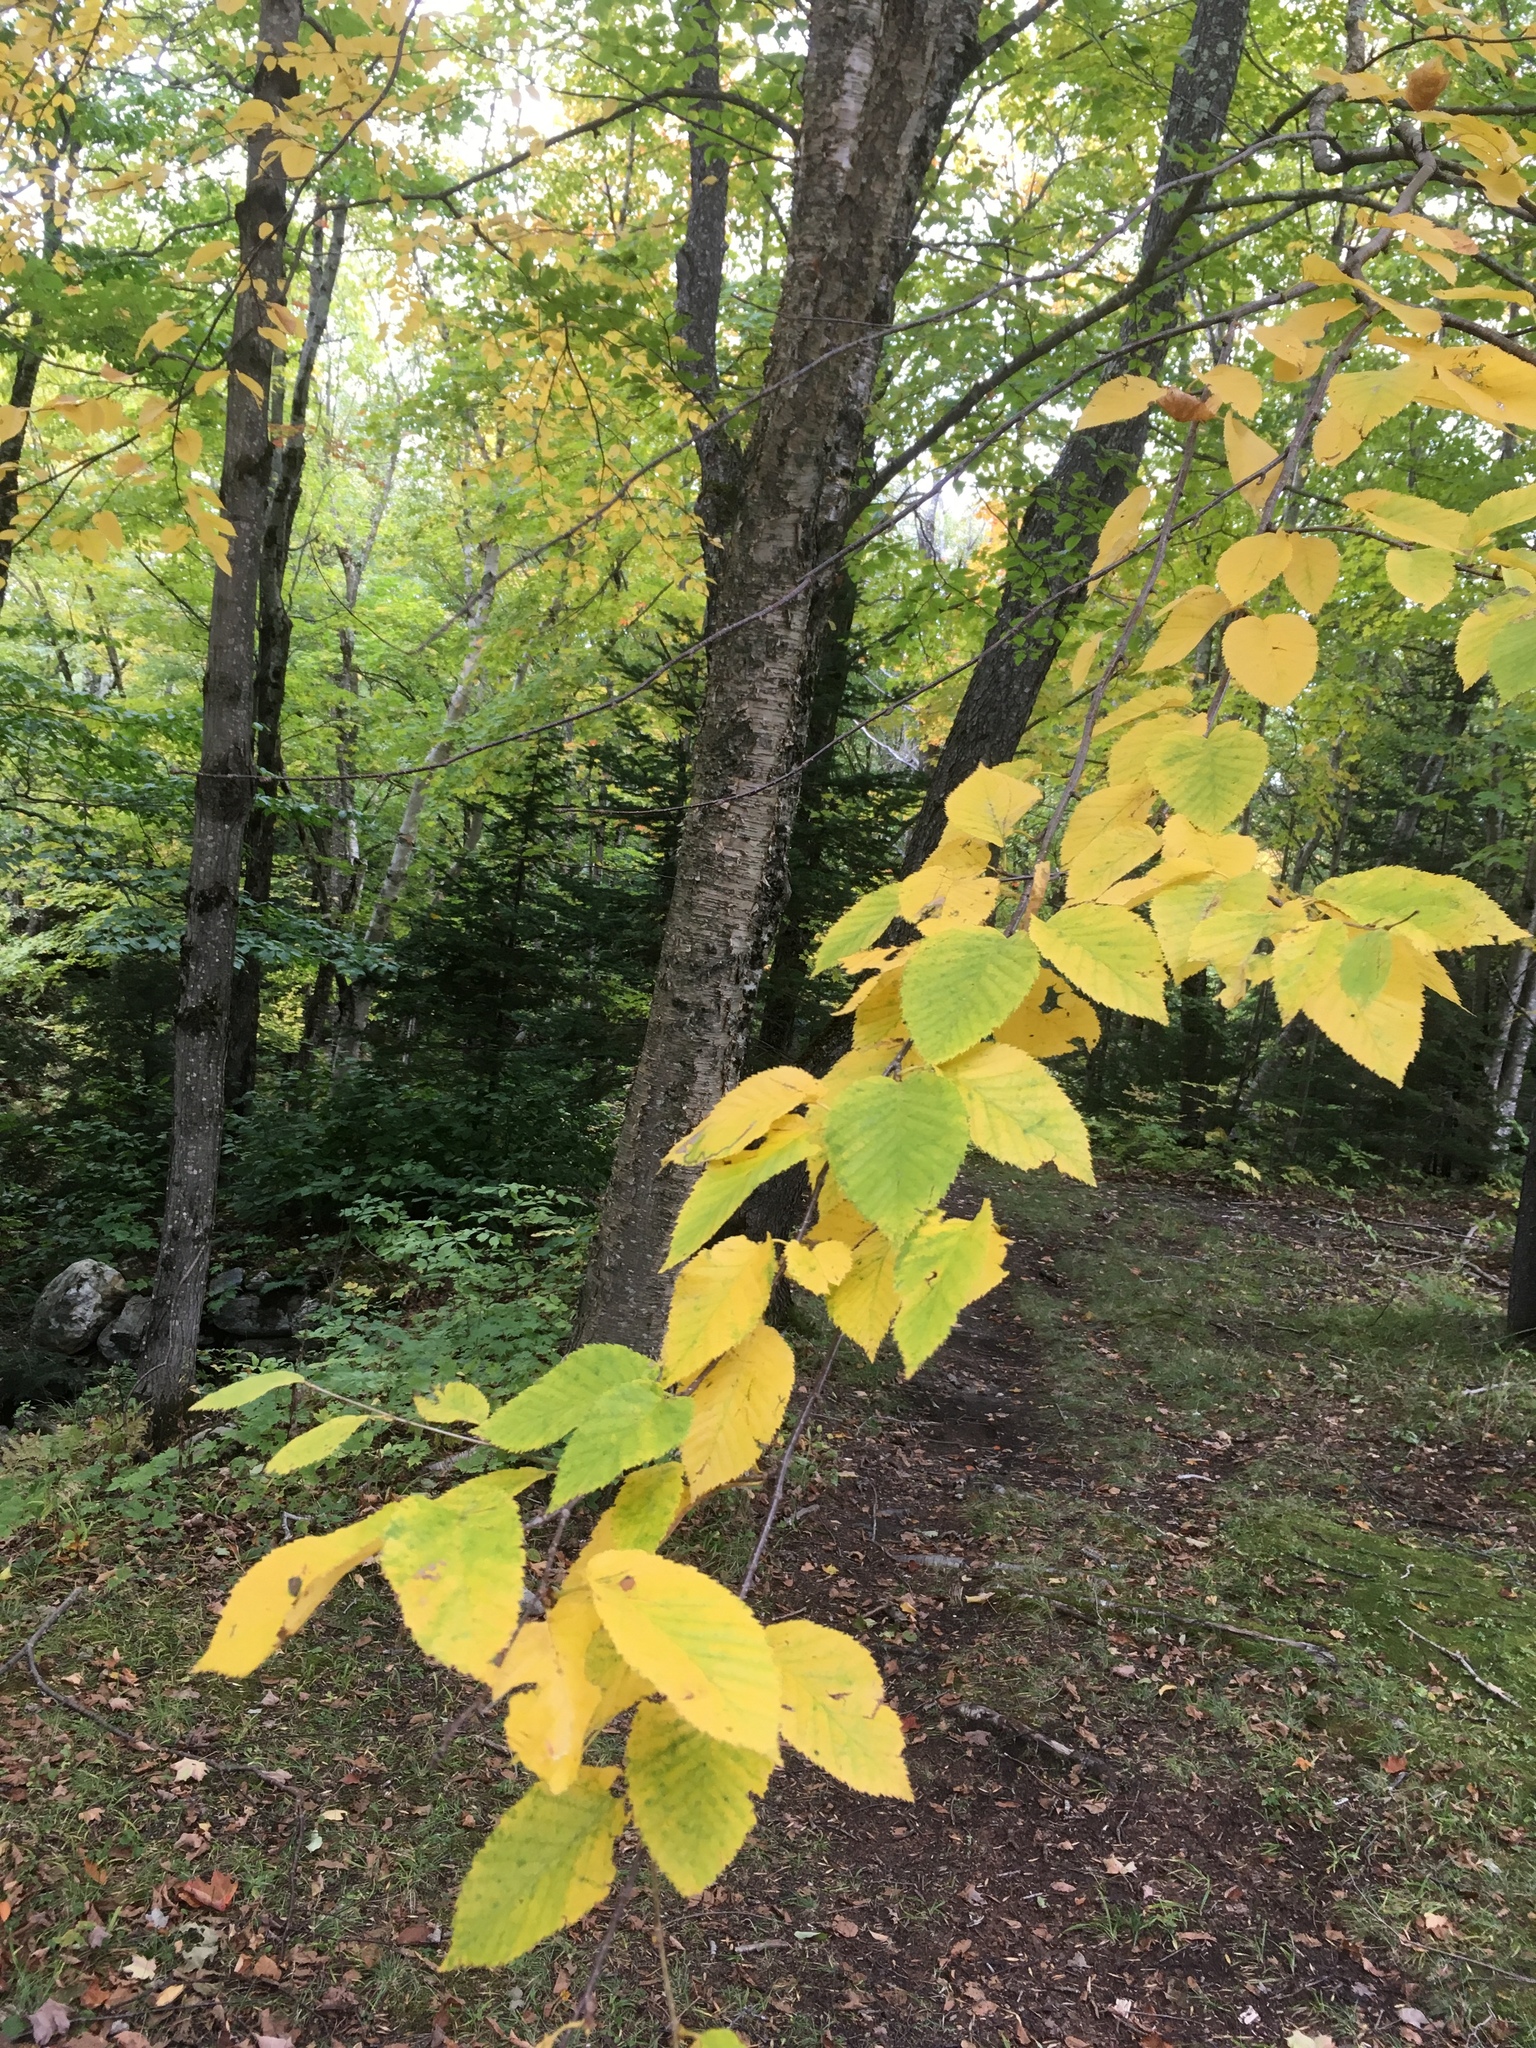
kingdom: Plantae
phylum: Tracheophyta
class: Magnoliopsida
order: Fagales
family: Betulaceae
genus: Betula
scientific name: Betula alleghaniensis
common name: Yellow birch
